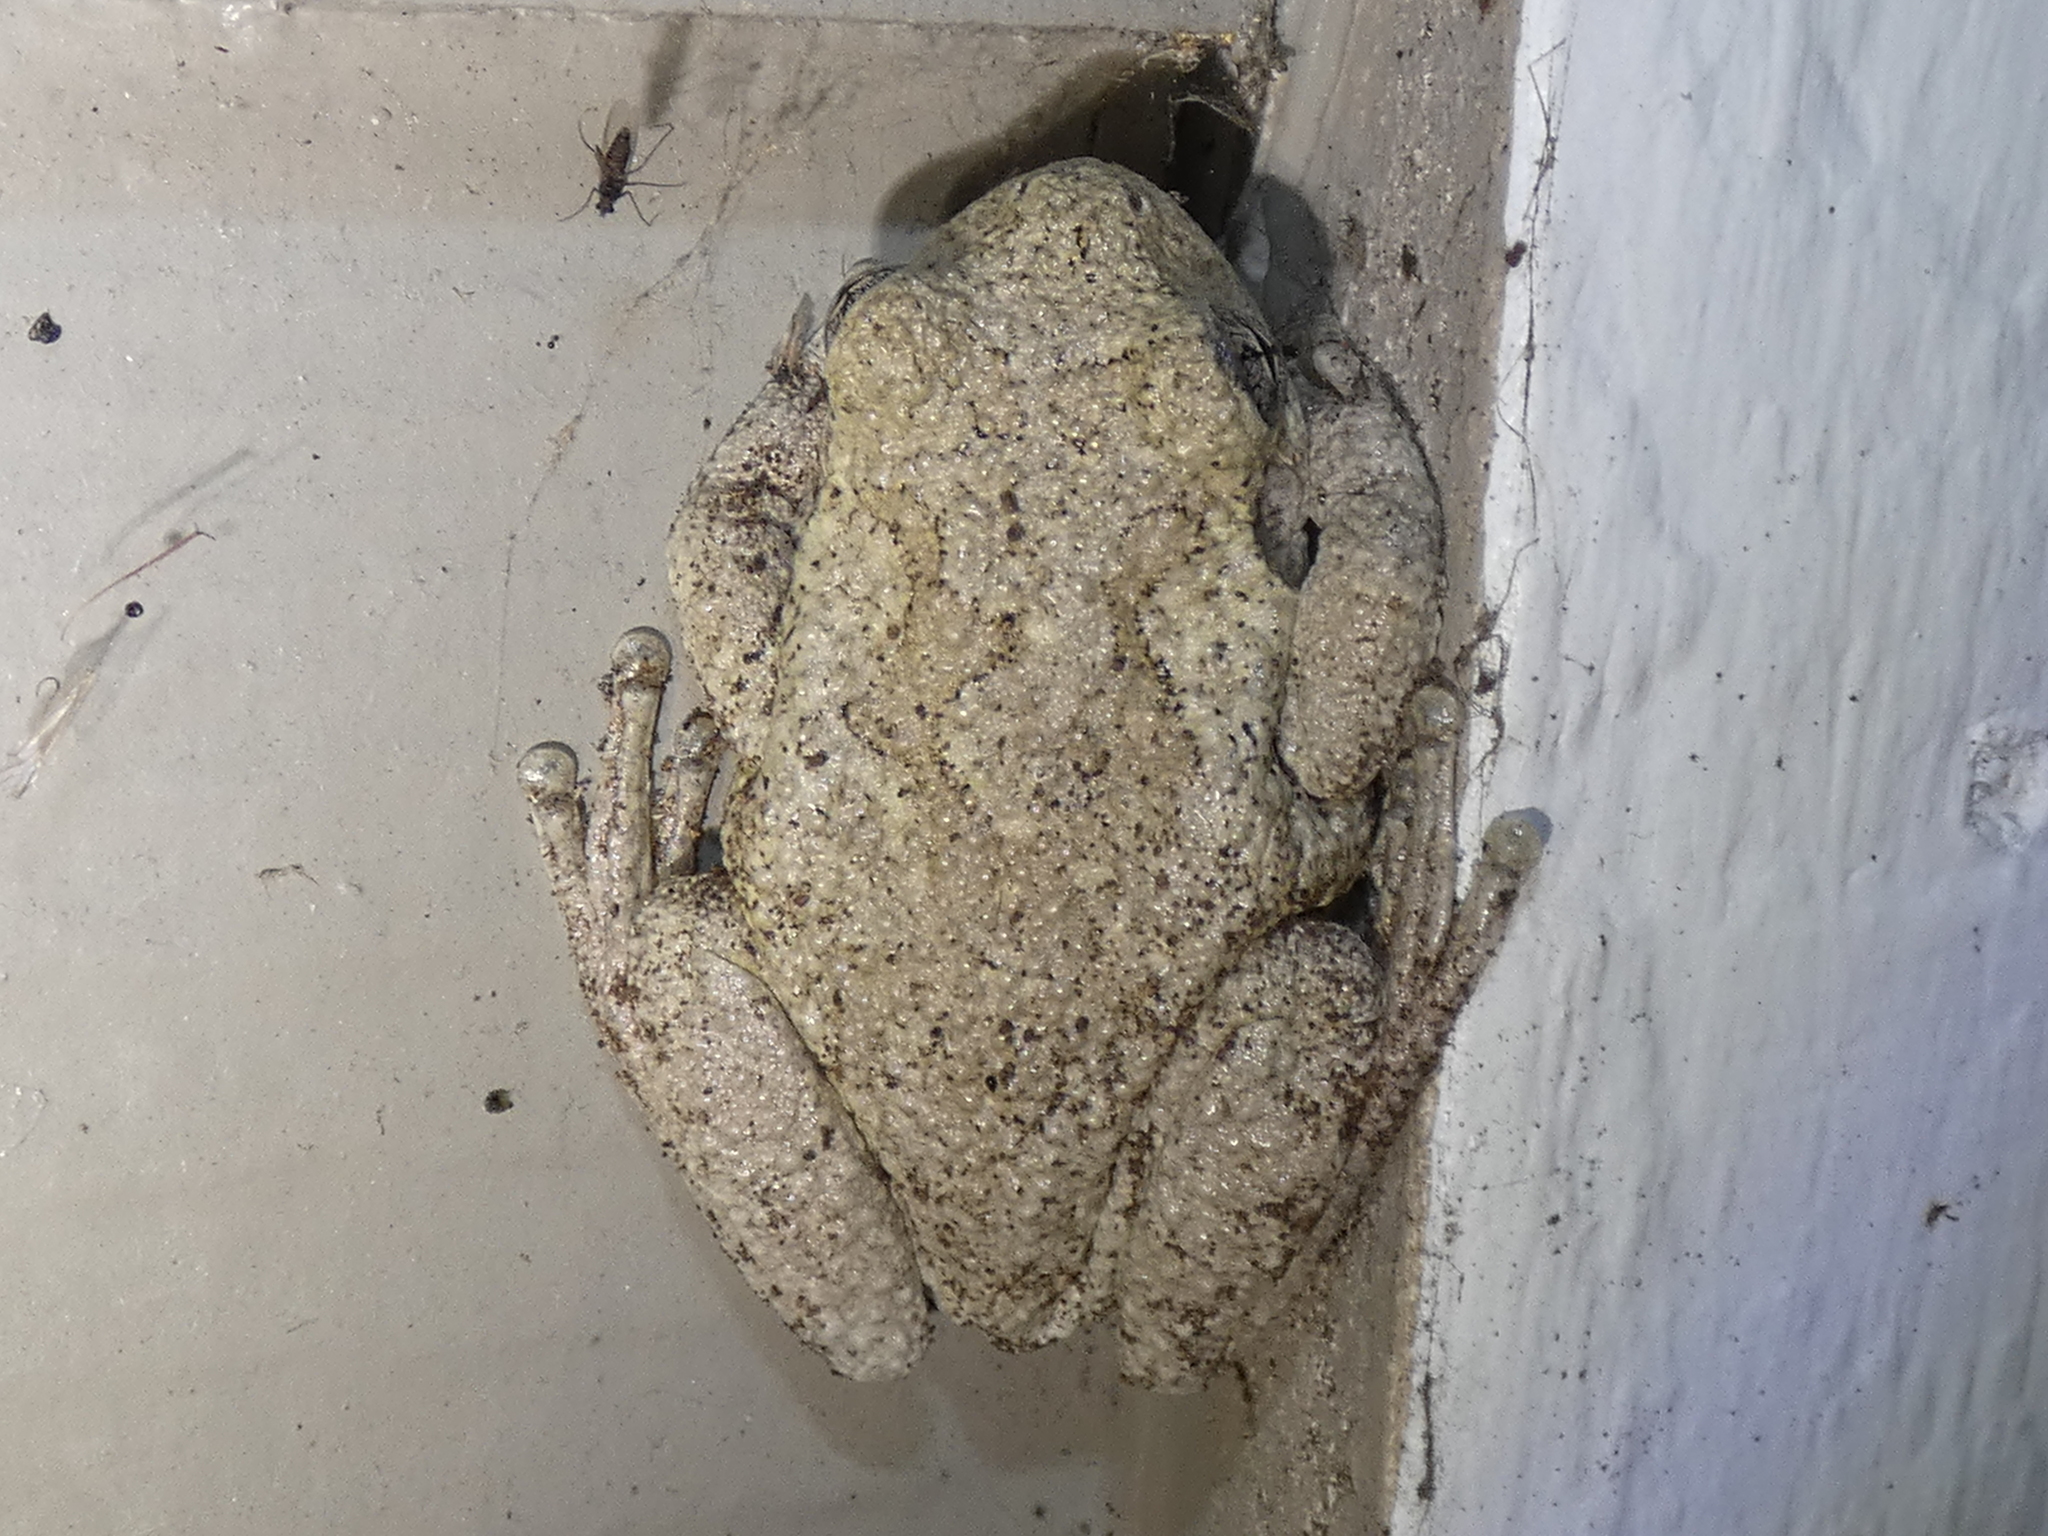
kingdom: Animalia
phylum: Chordata
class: Amphibia
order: Anura
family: Hylidae
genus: Dryophytes
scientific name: Dryophytes chrysoscelis
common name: Cope's gray treefrog
